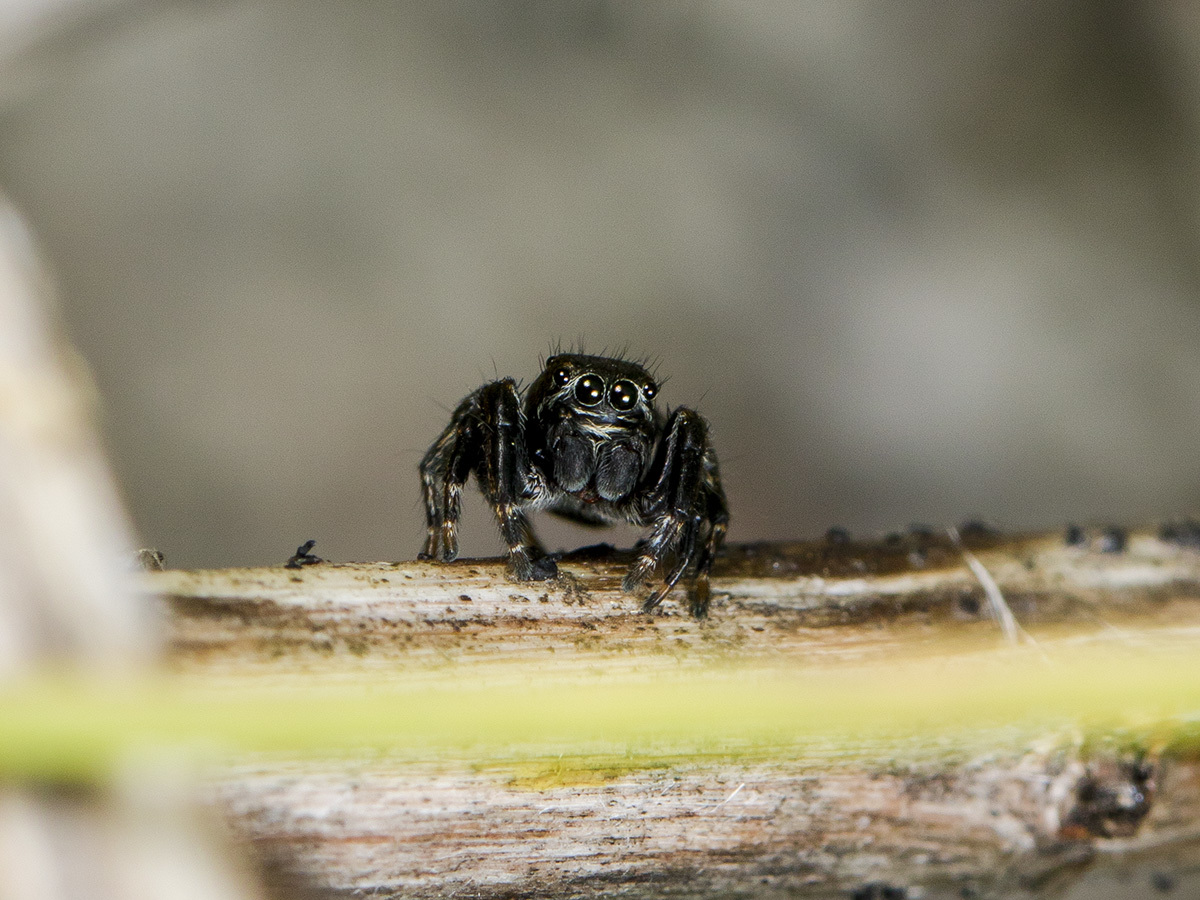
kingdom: Animalia
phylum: Arthropoda
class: Arachnida
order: Araneae
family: Salticidae
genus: Evarcha
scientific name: Evarcha arcuata
